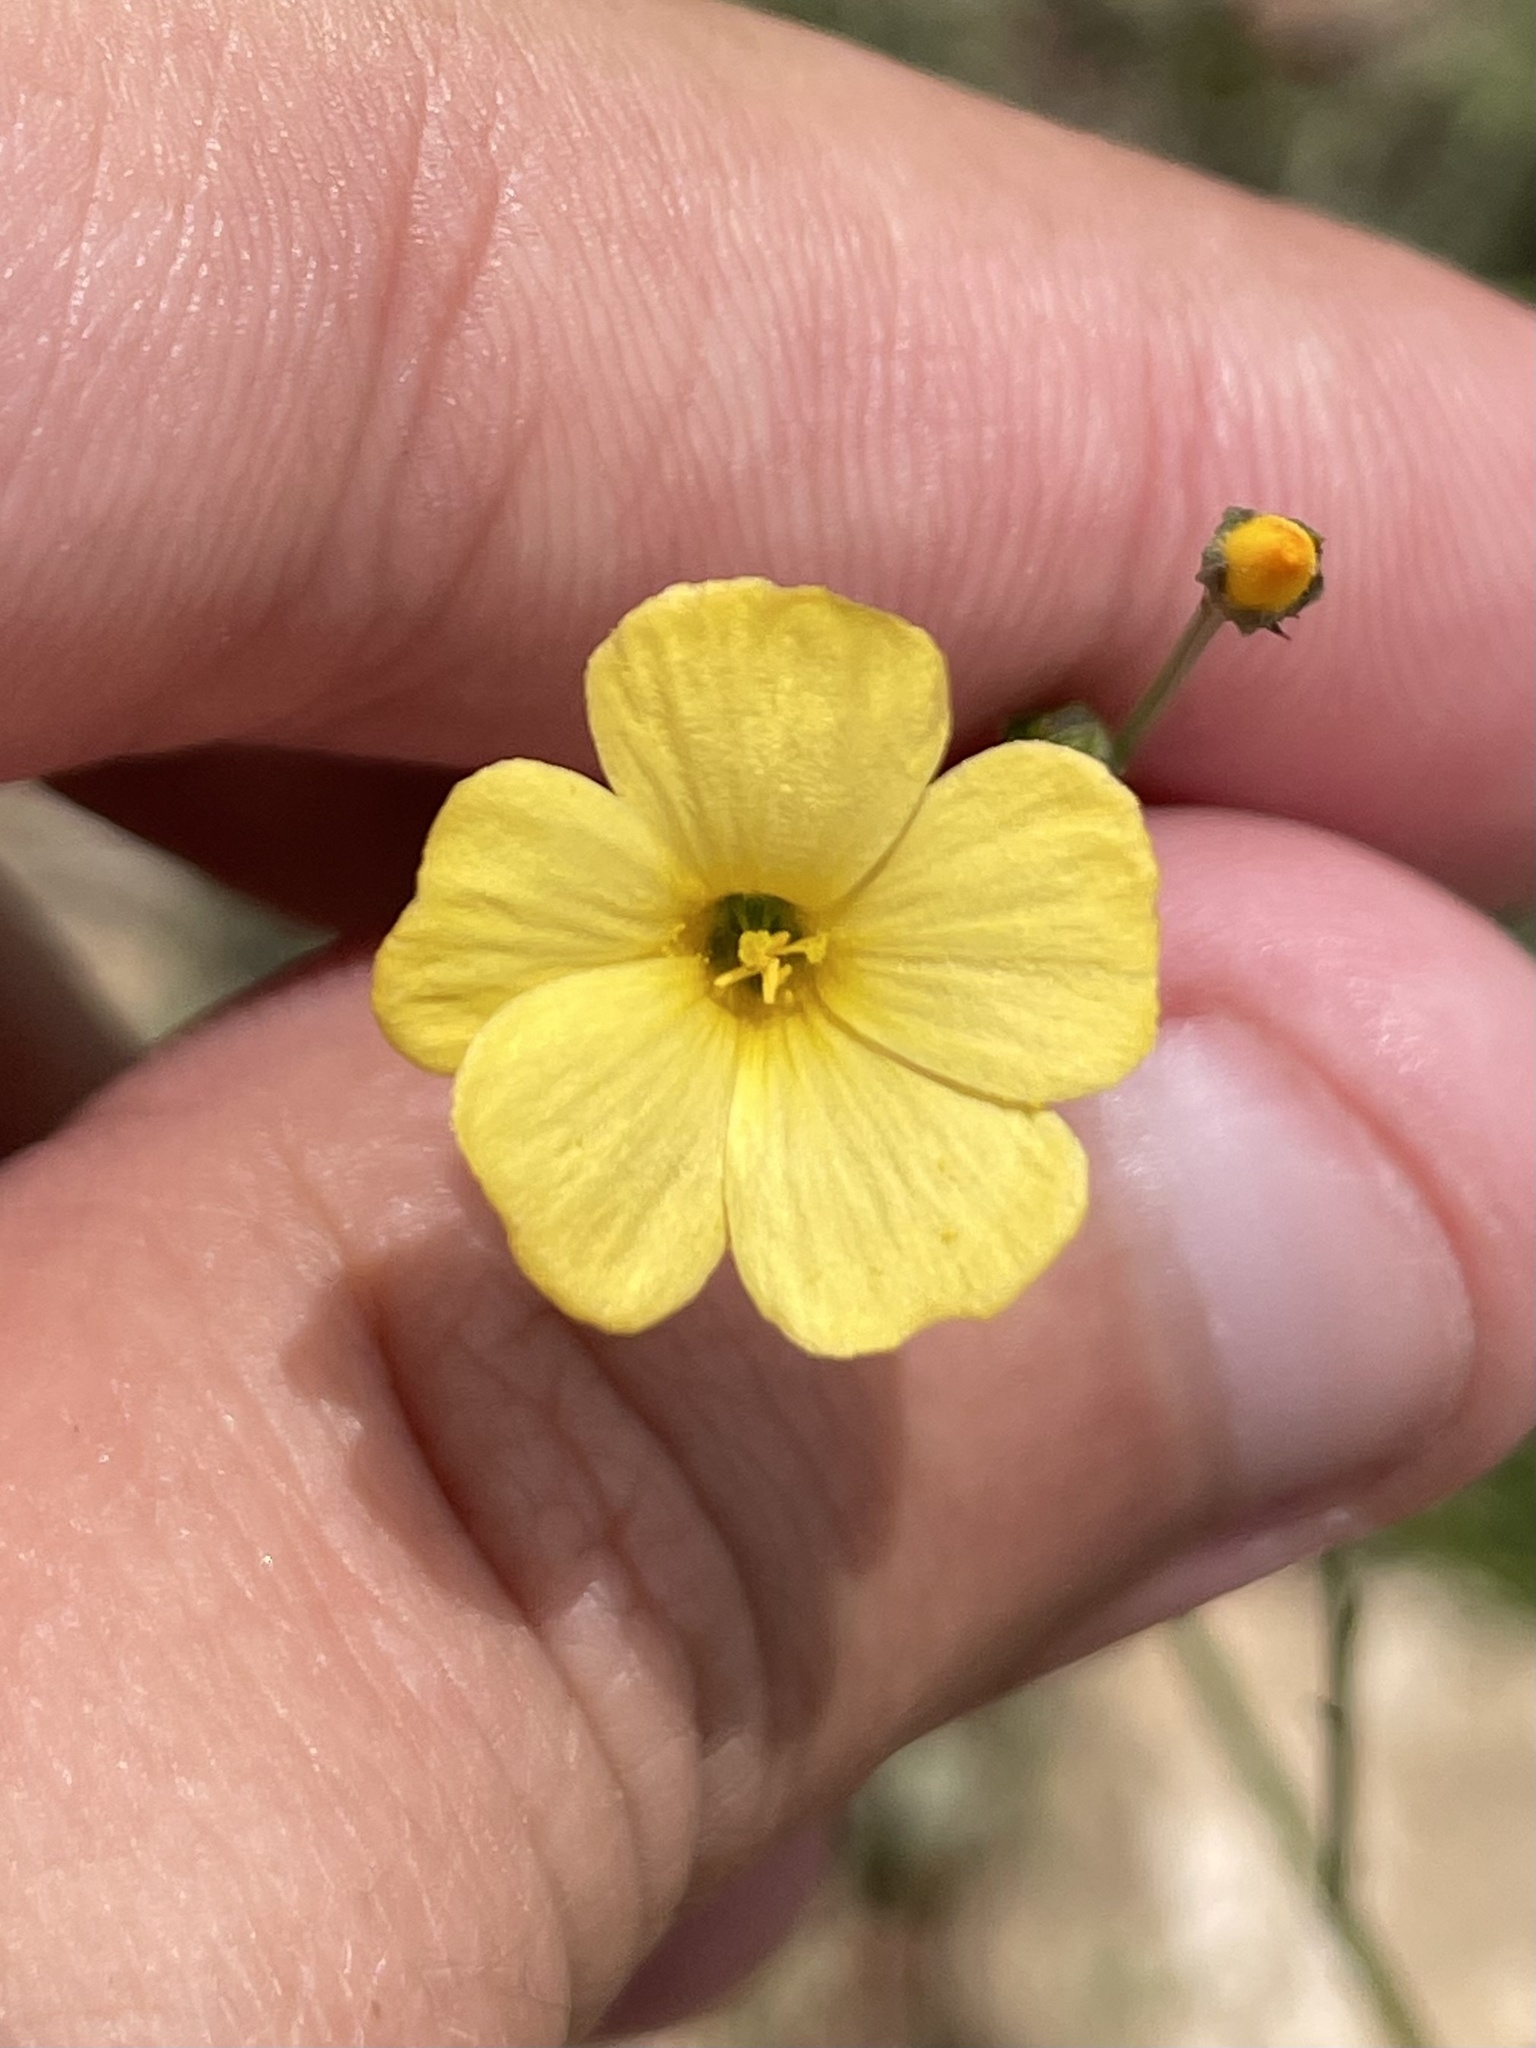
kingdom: Plantae
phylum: Tracheophyta
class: Magnoliopsida
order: Malpighiales
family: Linaceae
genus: Linum
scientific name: Linum rupestre
